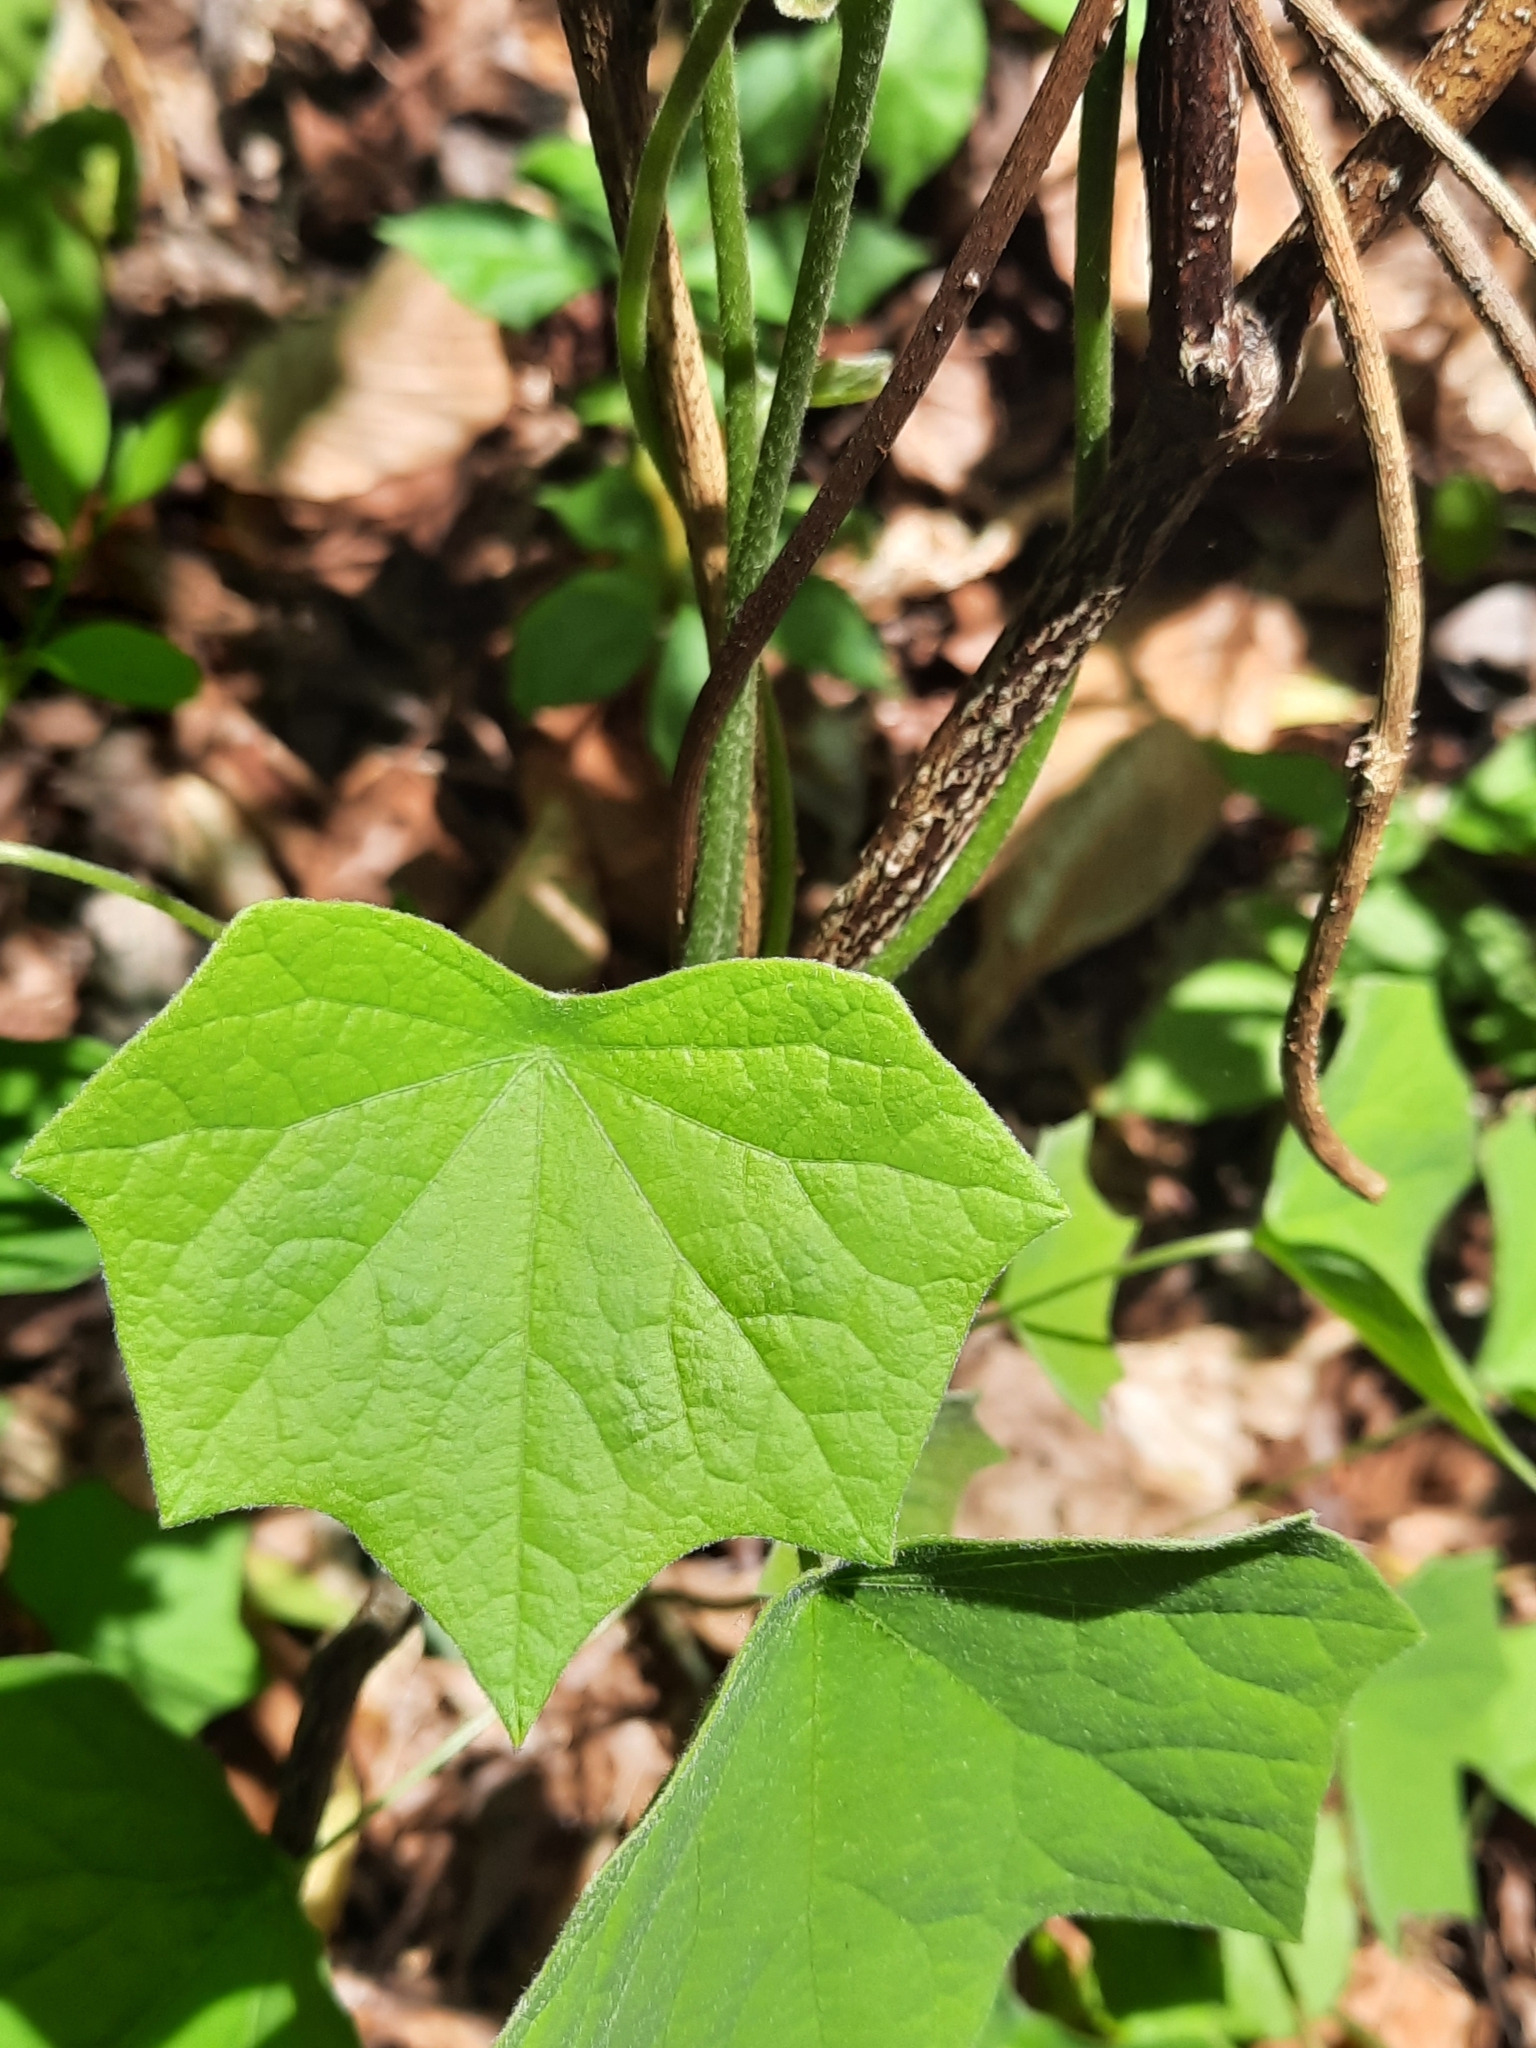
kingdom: Plantae
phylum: Tracheophyta
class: Magnoliopsida
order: Ranunculales
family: Menispermaceae
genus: Menispermum
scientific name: Menispermum canadense
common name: Moonseed
